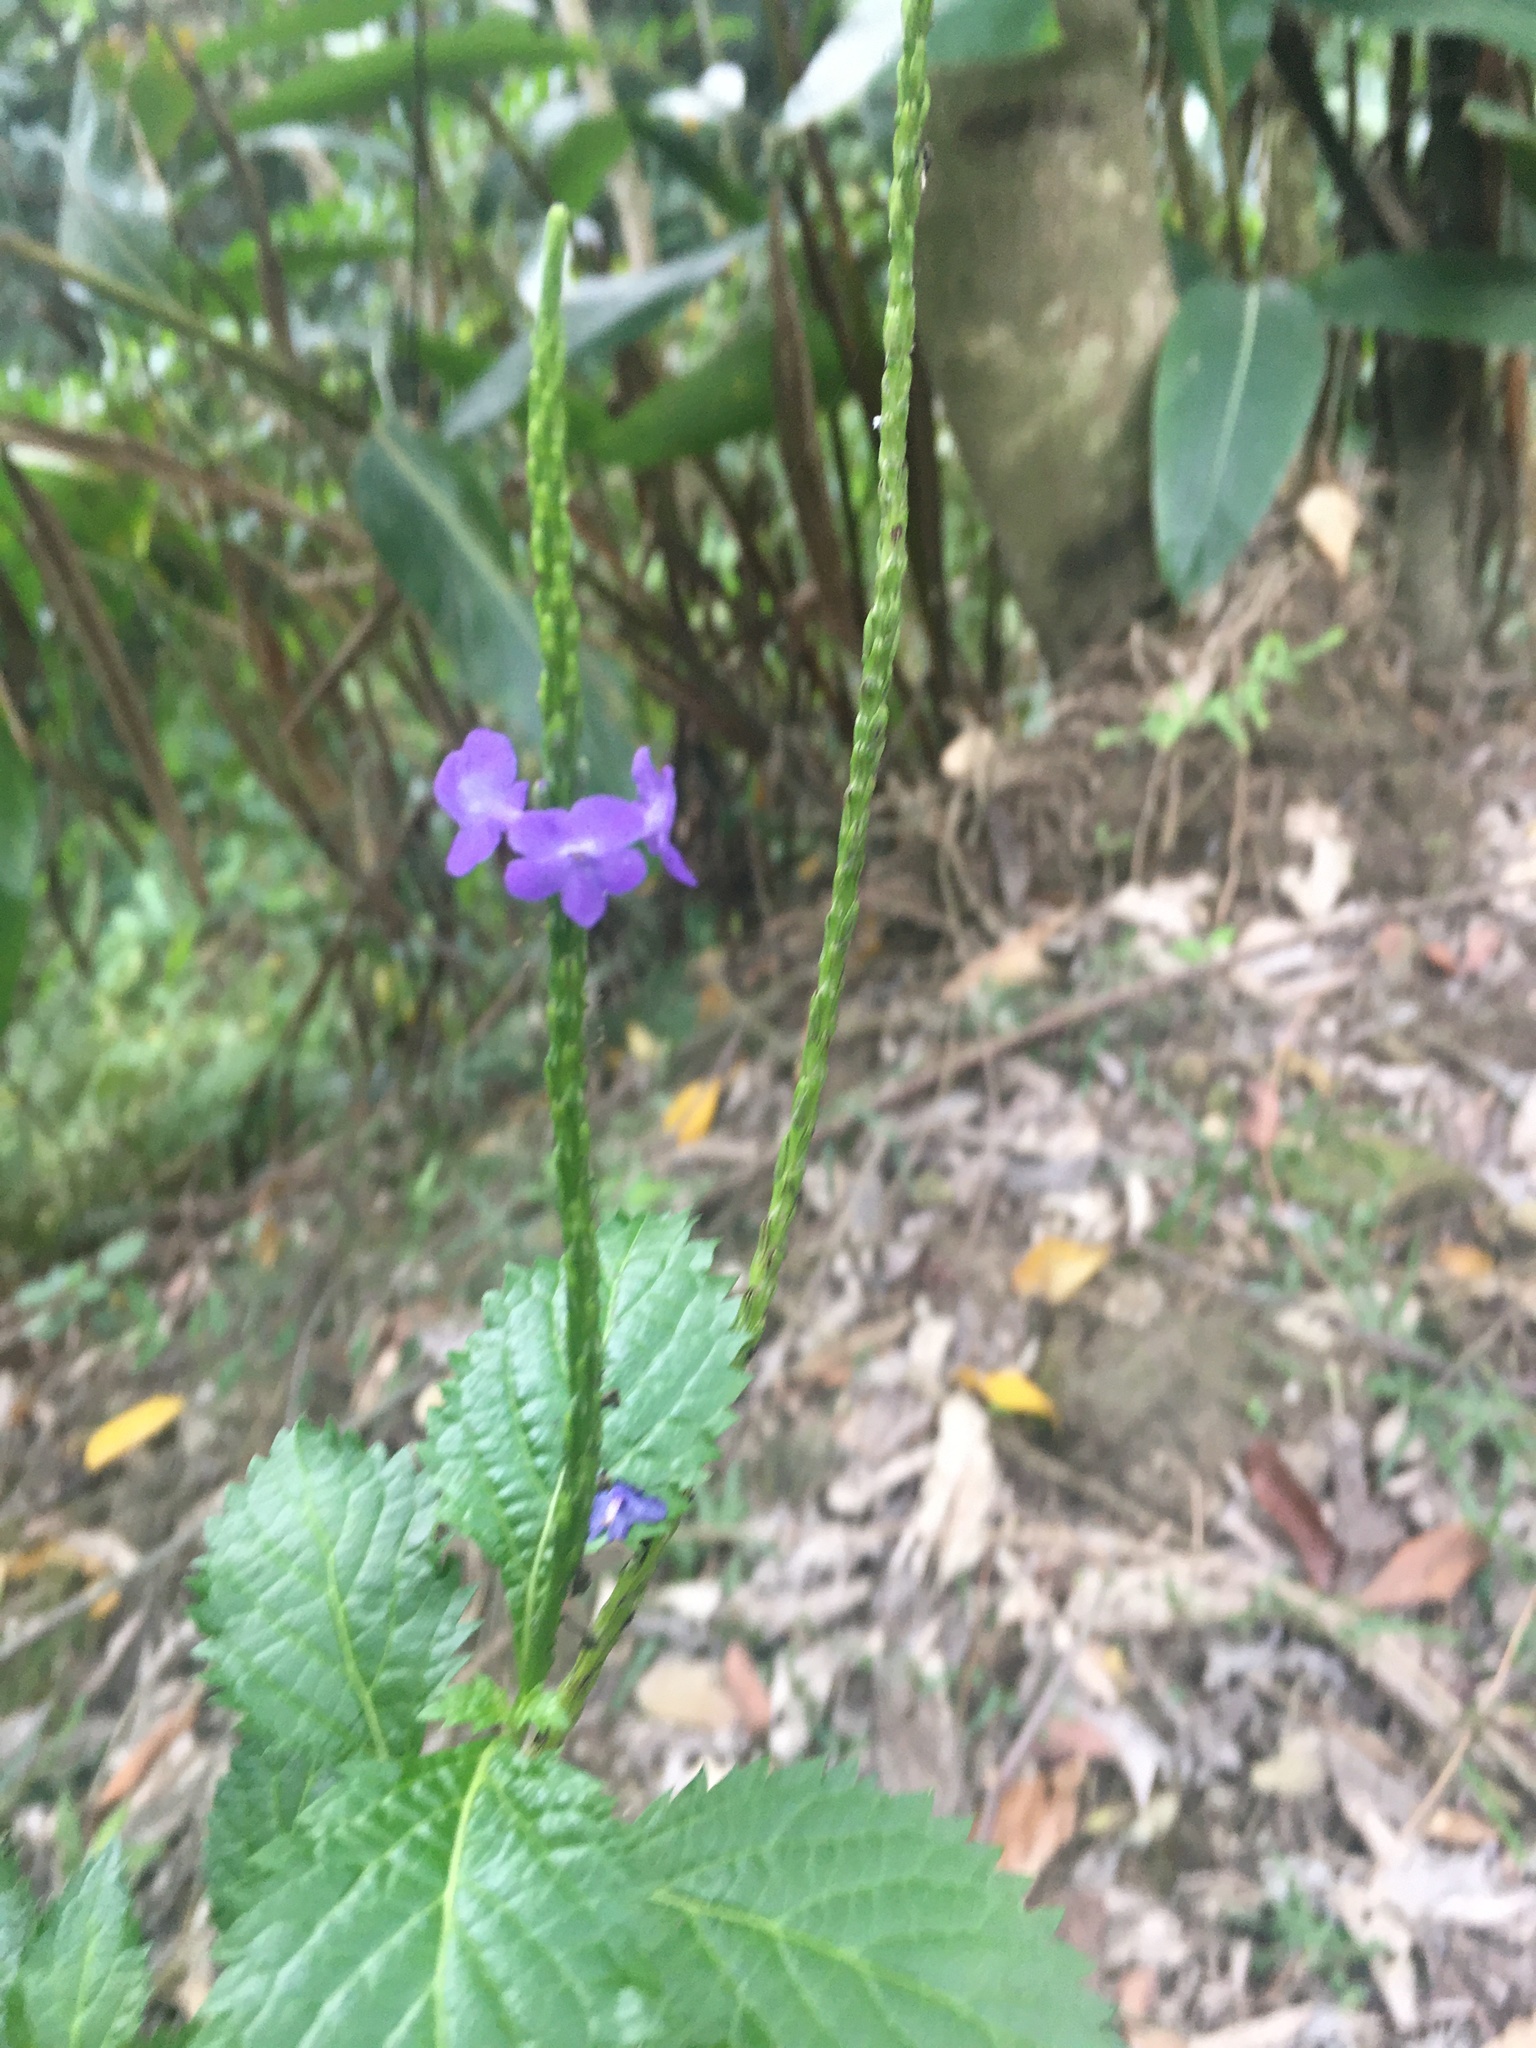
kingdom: Plantae
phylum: Tracheophyta
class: Magnoliopsida
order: Lamiales
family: Verbenaceae
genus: Stachytarpheta
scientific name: Stachytarpheta urticifolia
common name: Nettleleaf velvetberry
